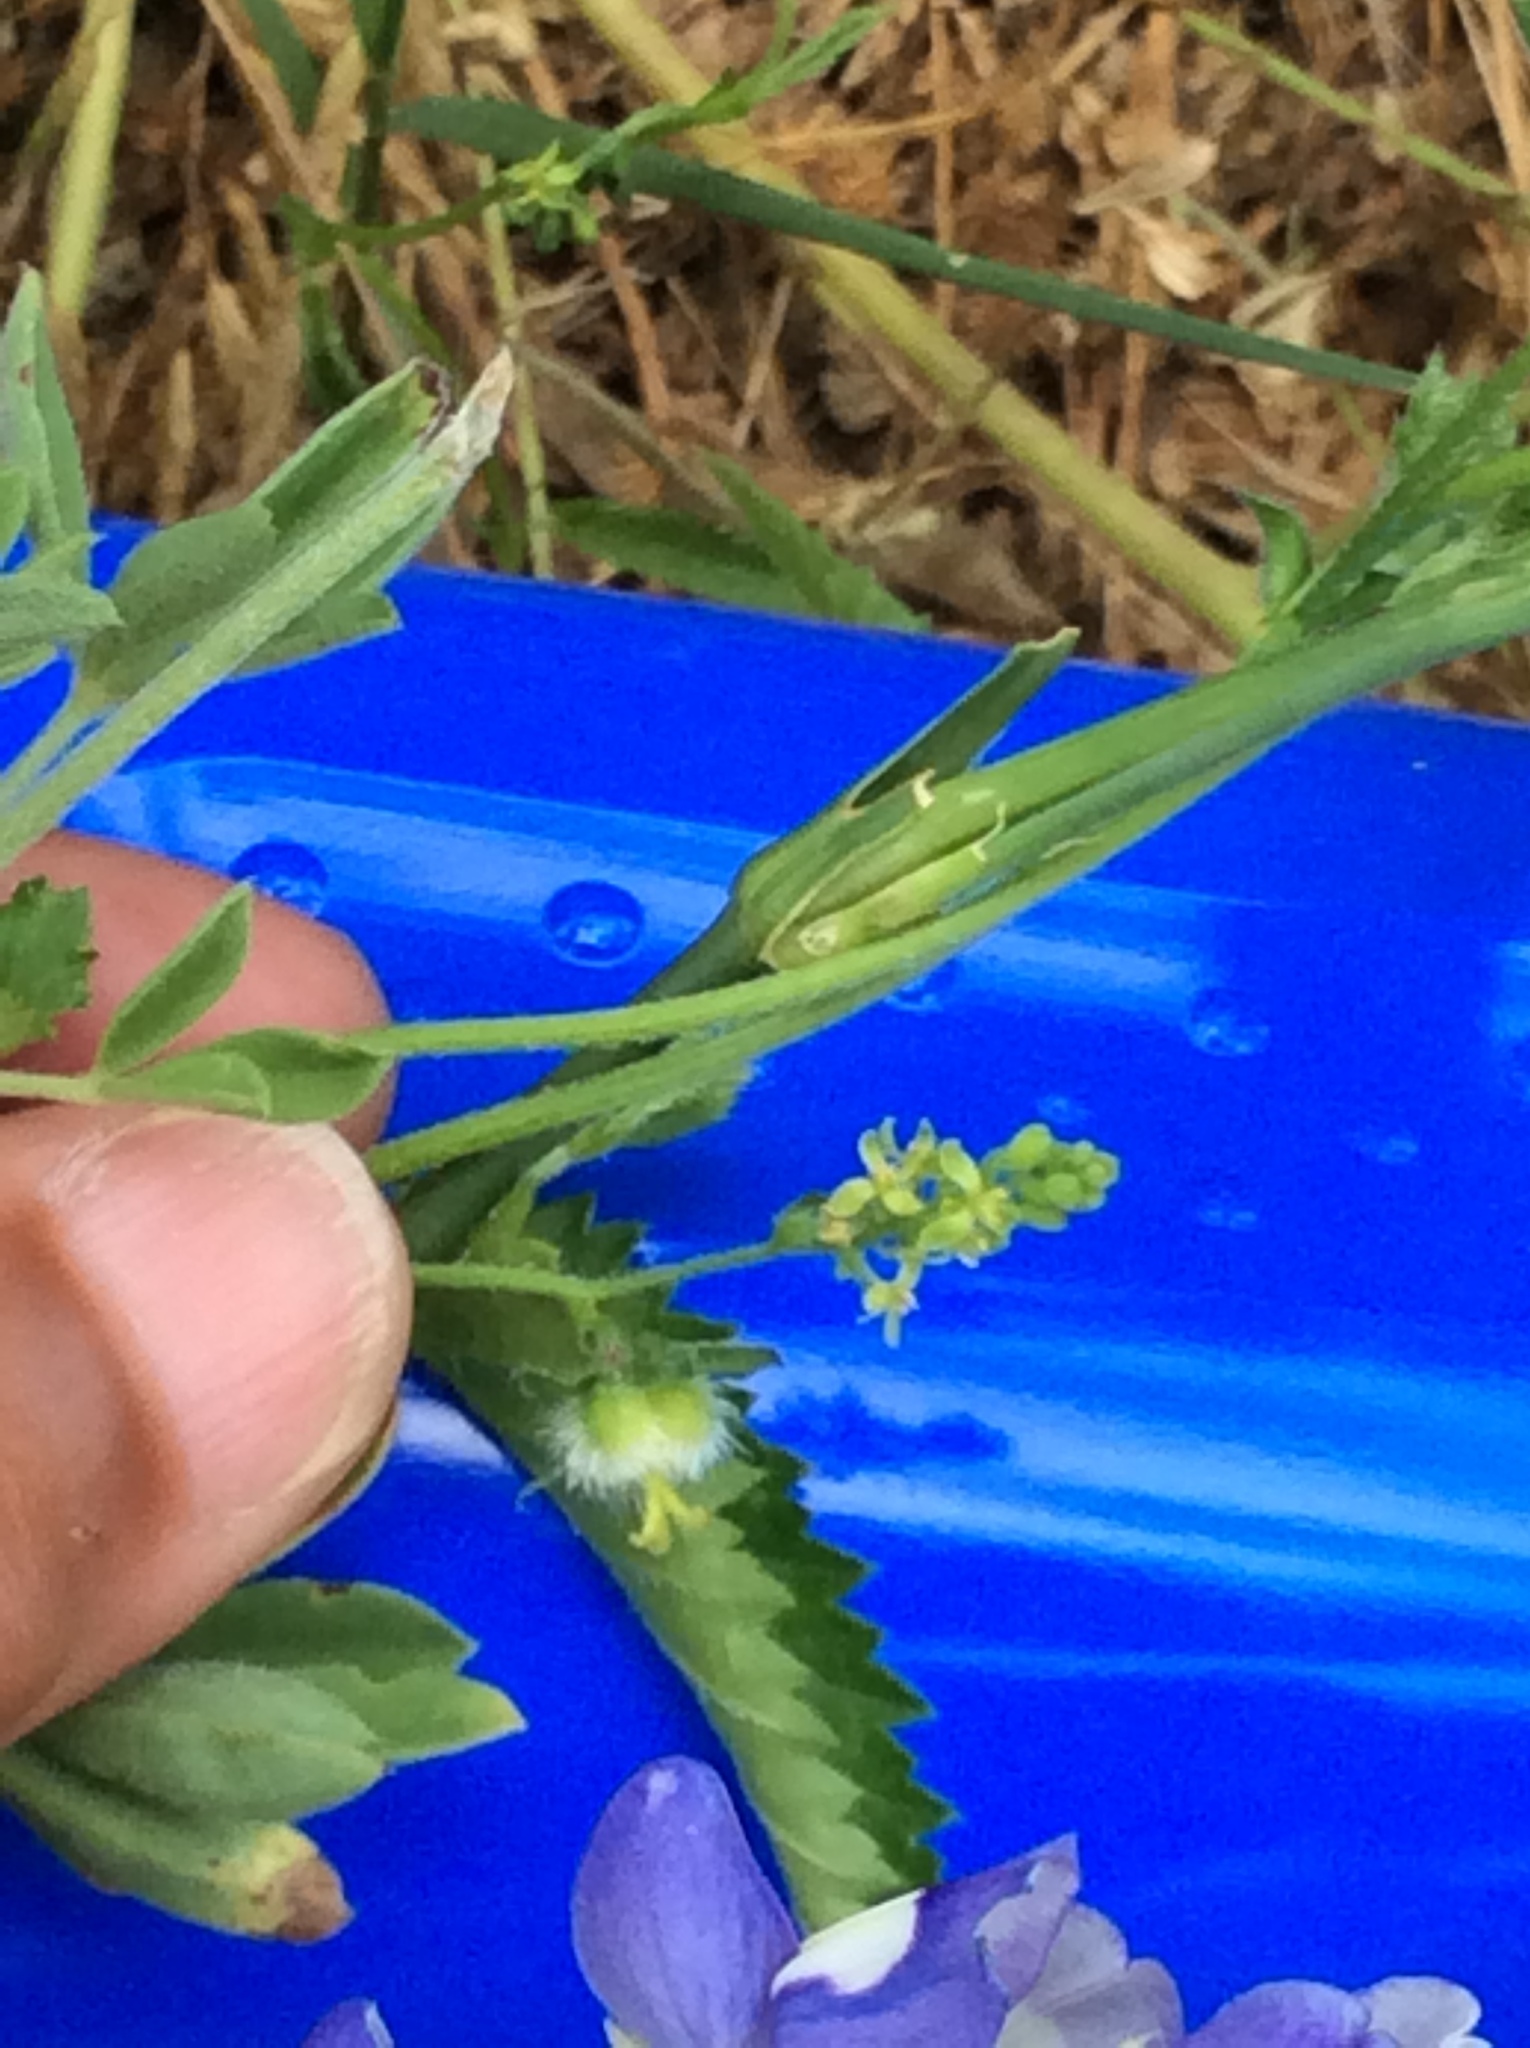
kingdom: Plantae
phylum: Tracheophyta
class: Magnoliopsida
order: Malpighiales
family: Euphorbiaceae
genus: Tragia
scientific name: Tragia ramosa
